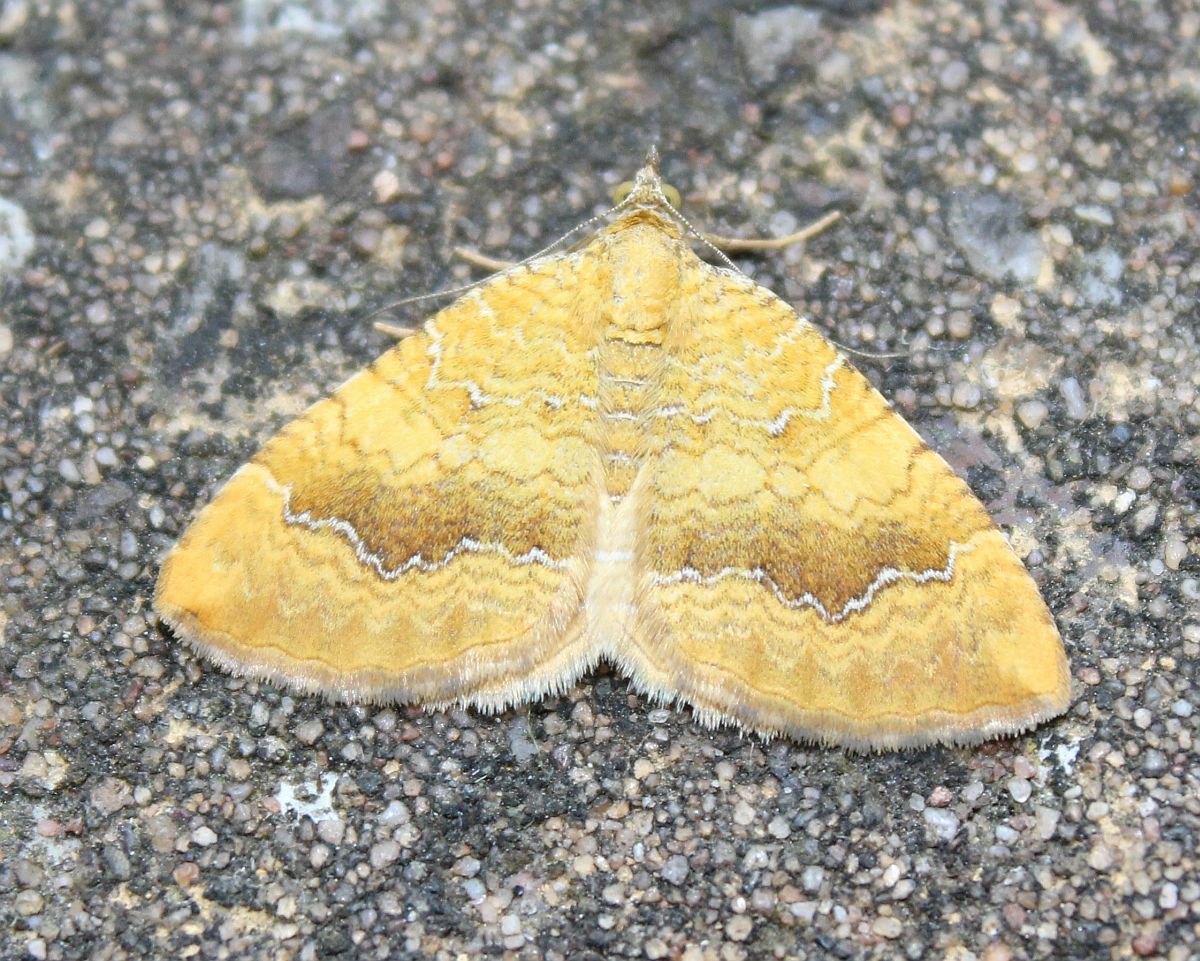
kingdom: Animalia
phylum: Arthropoda
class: Insecta
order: Lepidoptera
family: Geometridae
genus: Camptogramma
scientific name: Camptogramma bilineata
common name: Yellow shell
